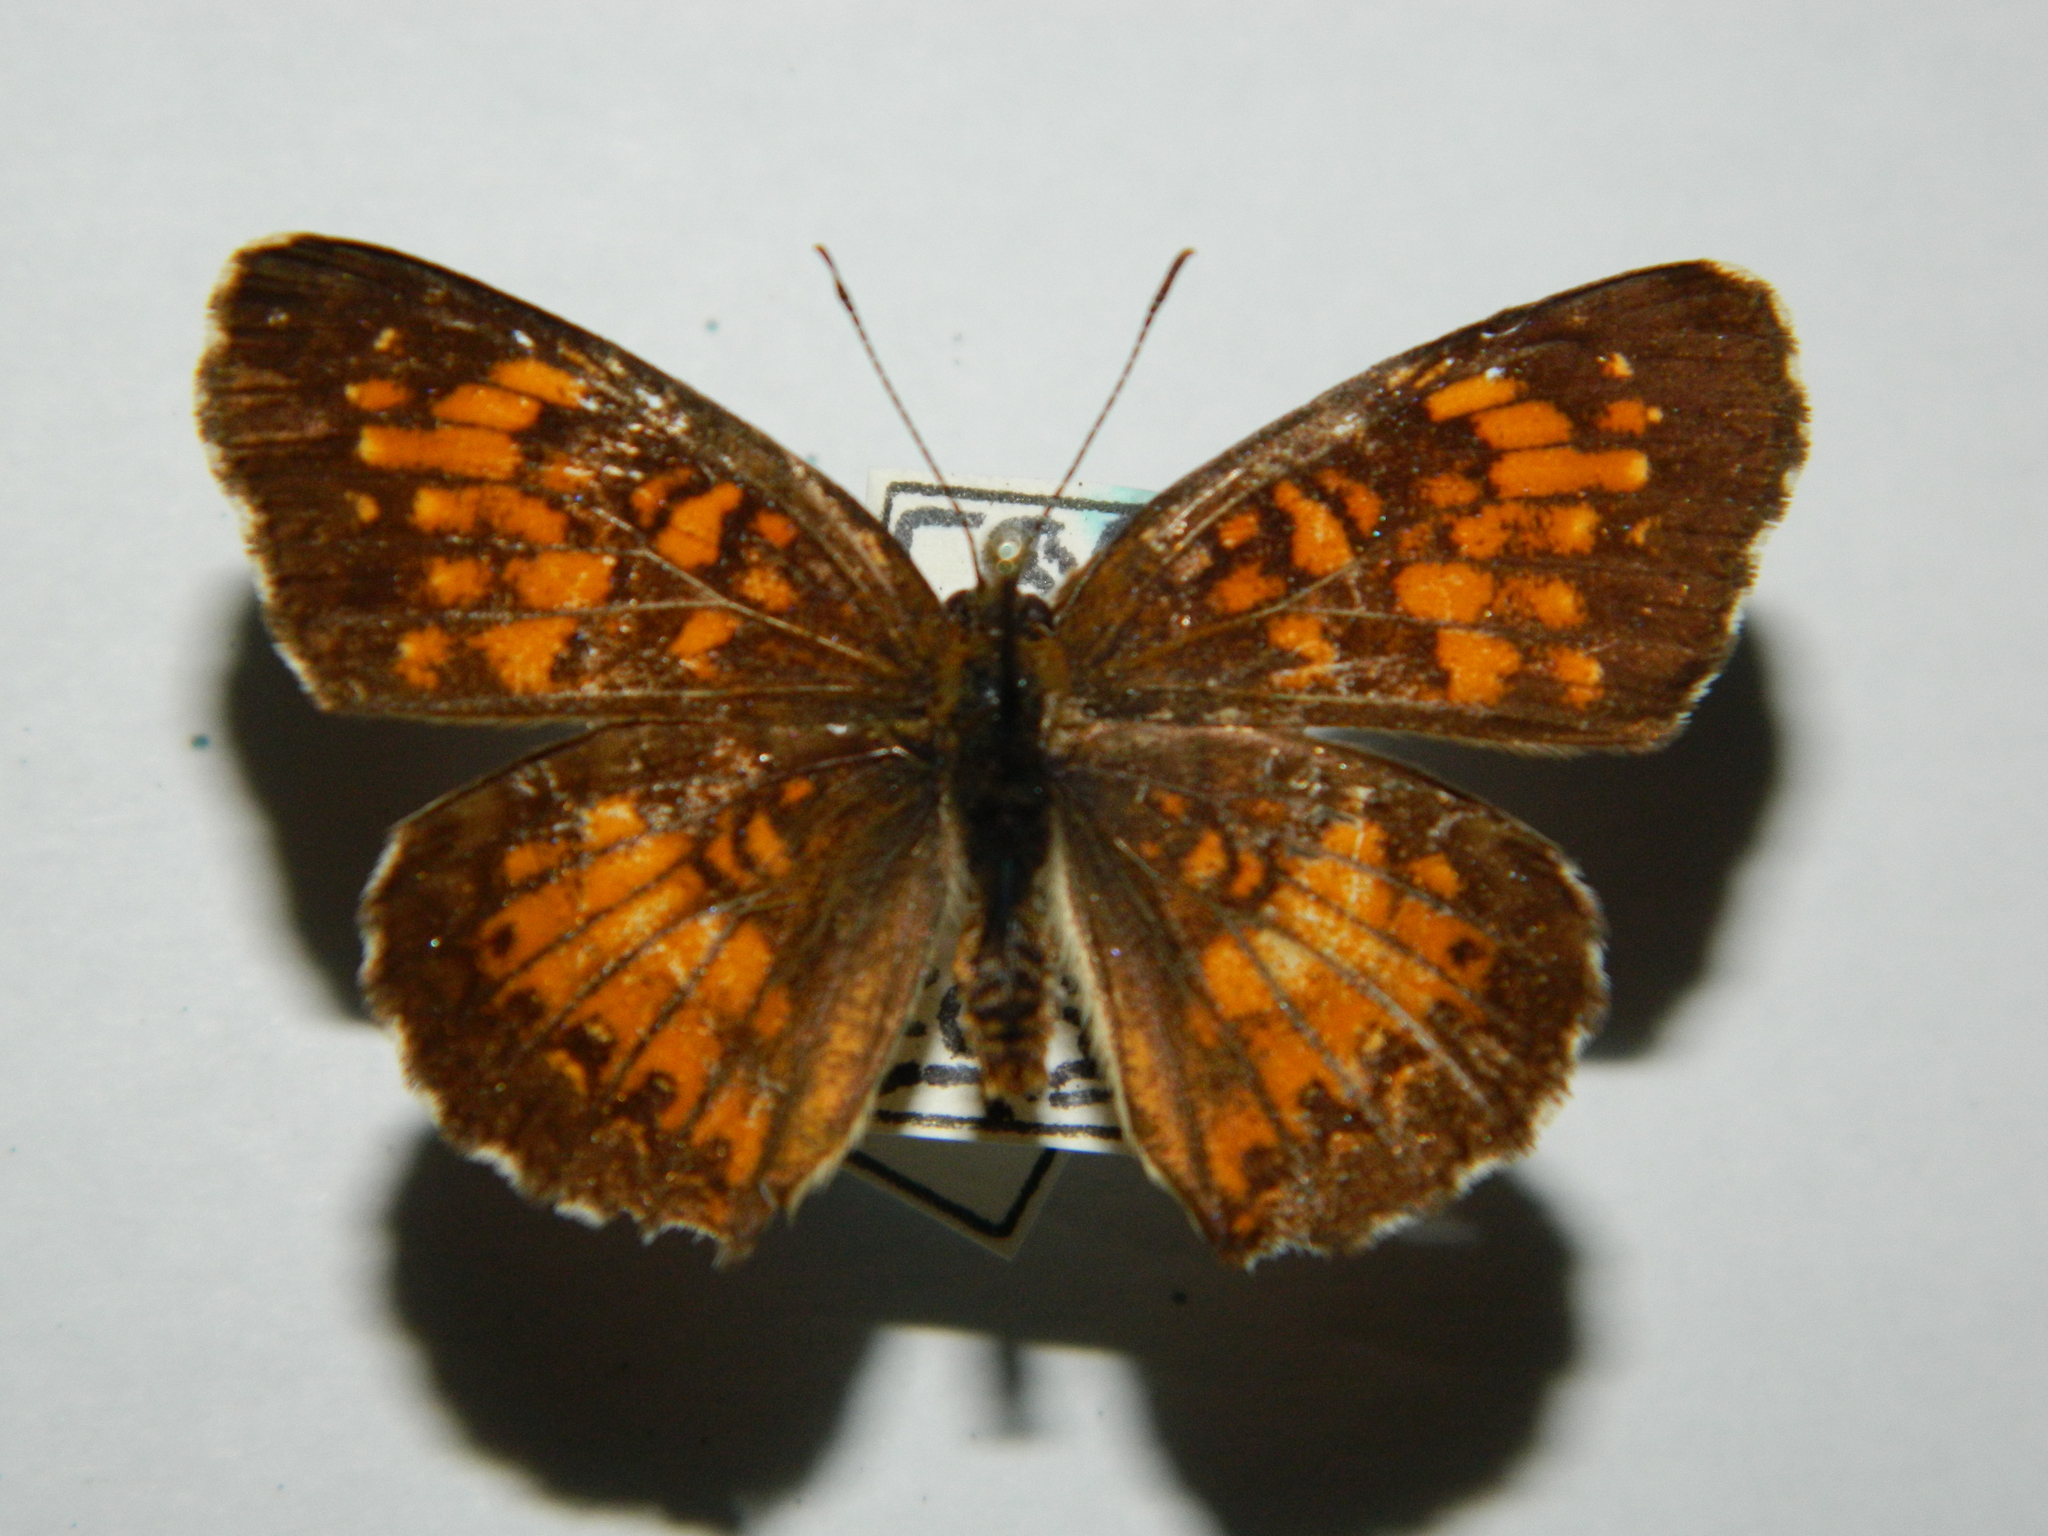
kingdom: Animalia
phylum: Arthropoda
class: Insecta
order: Lepidoptera
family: Nymphalidae
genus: Chlosyne
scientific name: Chlosyne harrisii
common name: Harris's checkerspot
